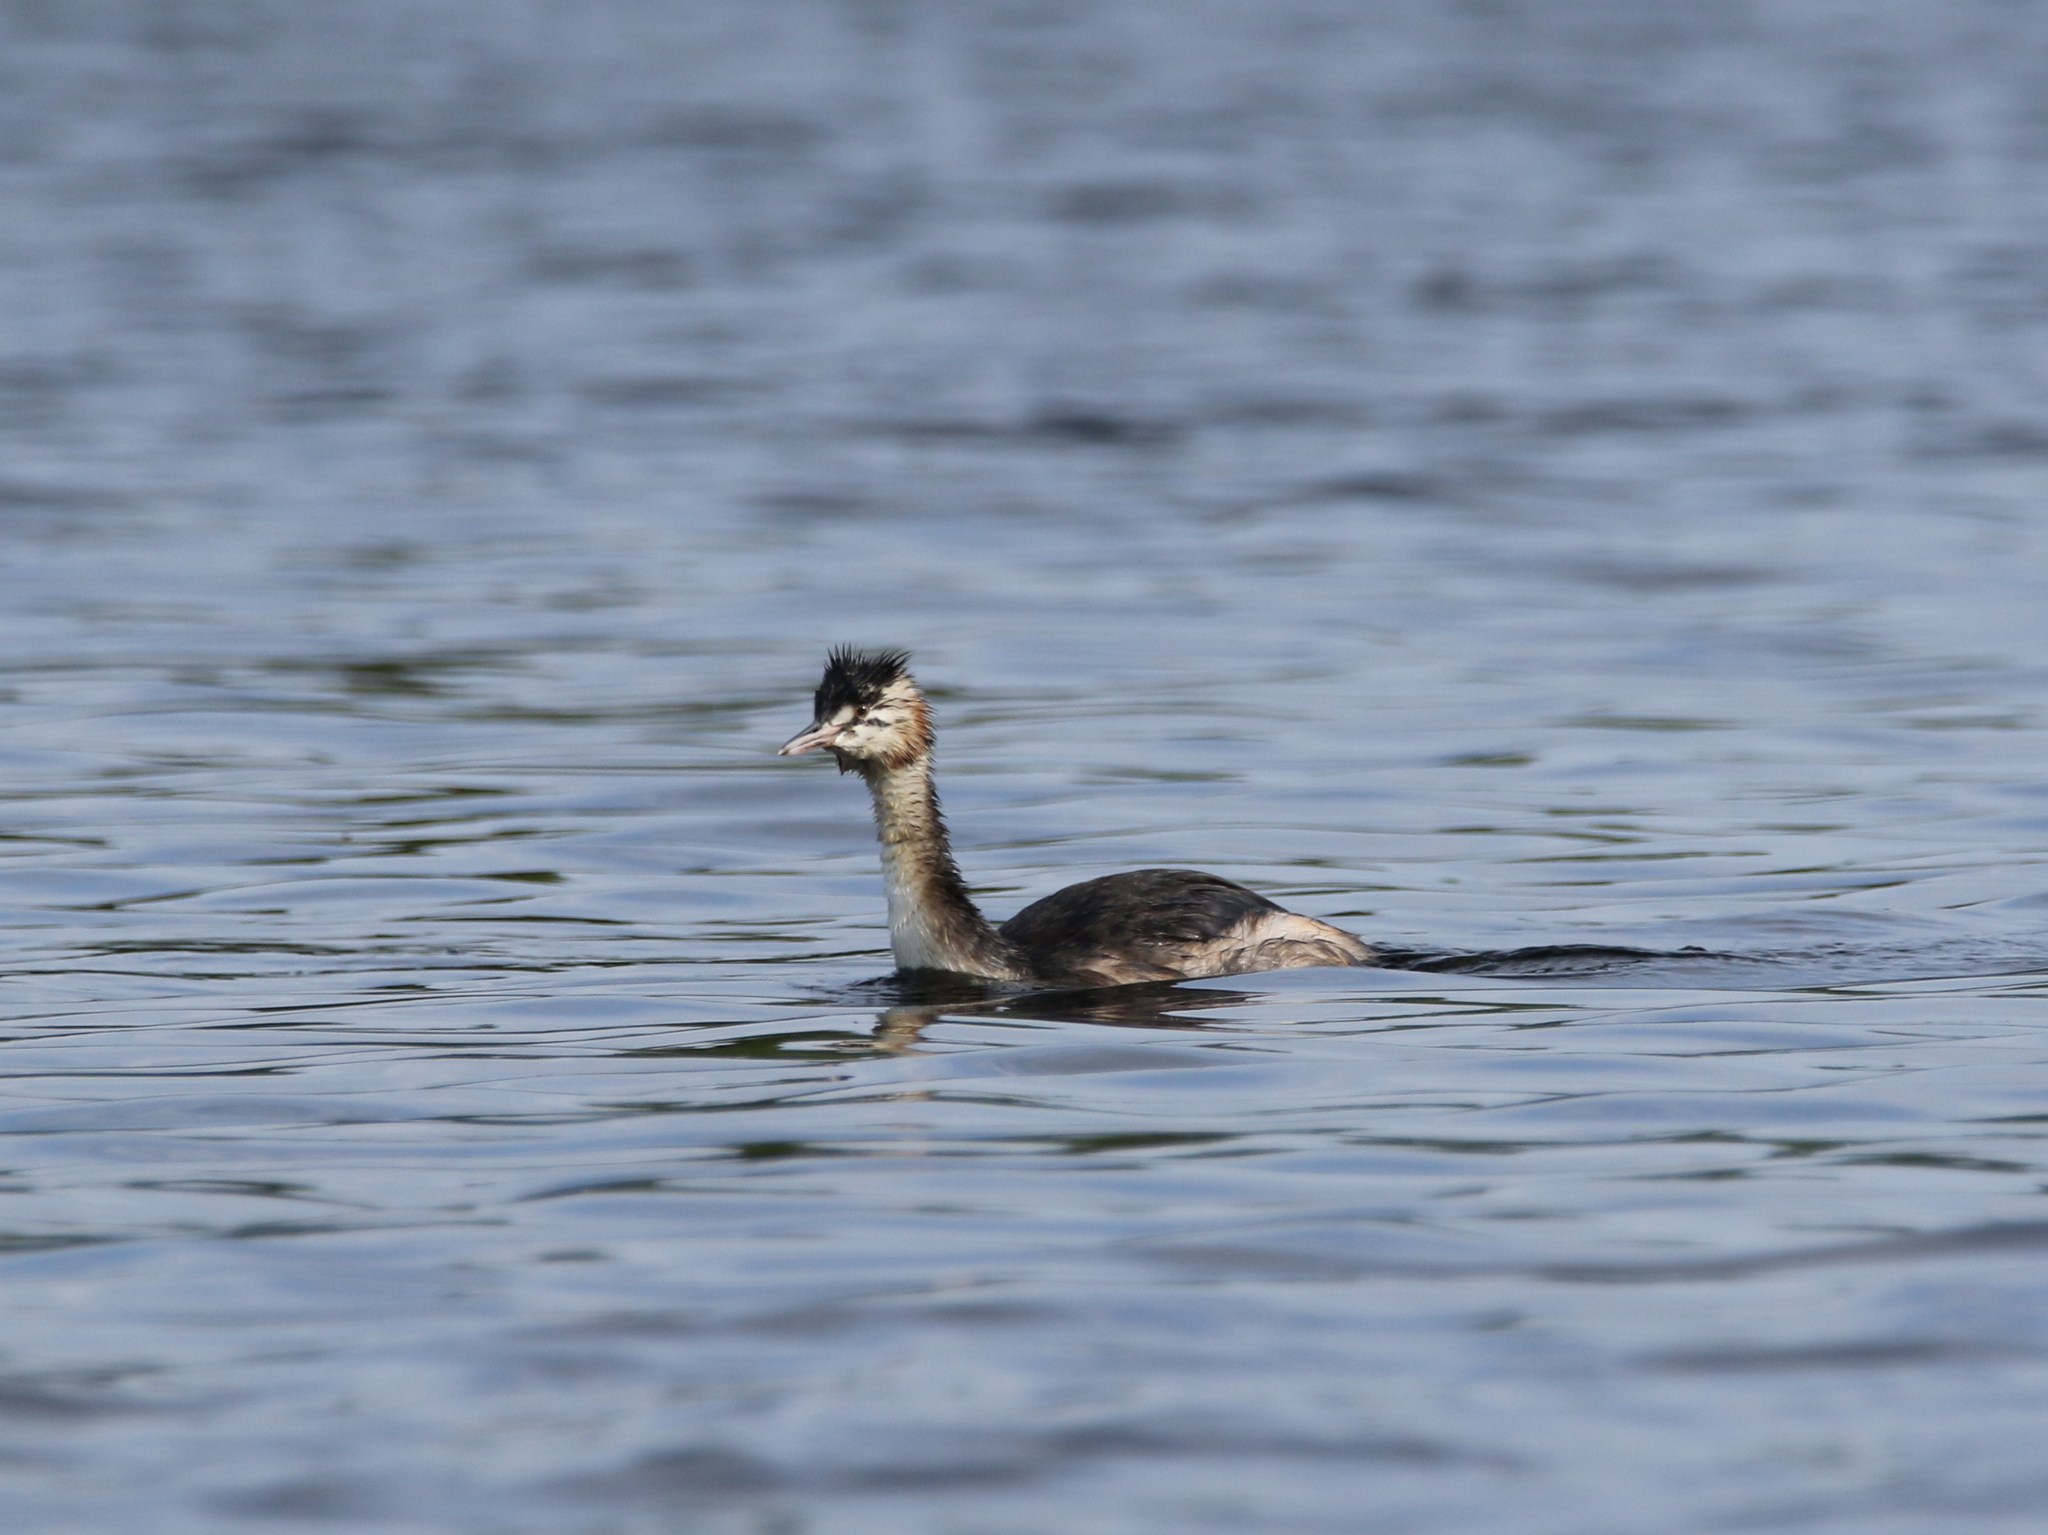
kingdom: Animalia
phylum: Chordata
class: Aves
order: Podicipediformes
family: Podicipedidae
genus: Podiceps
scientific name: Podiceps cristatus
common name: Great crested grebe
